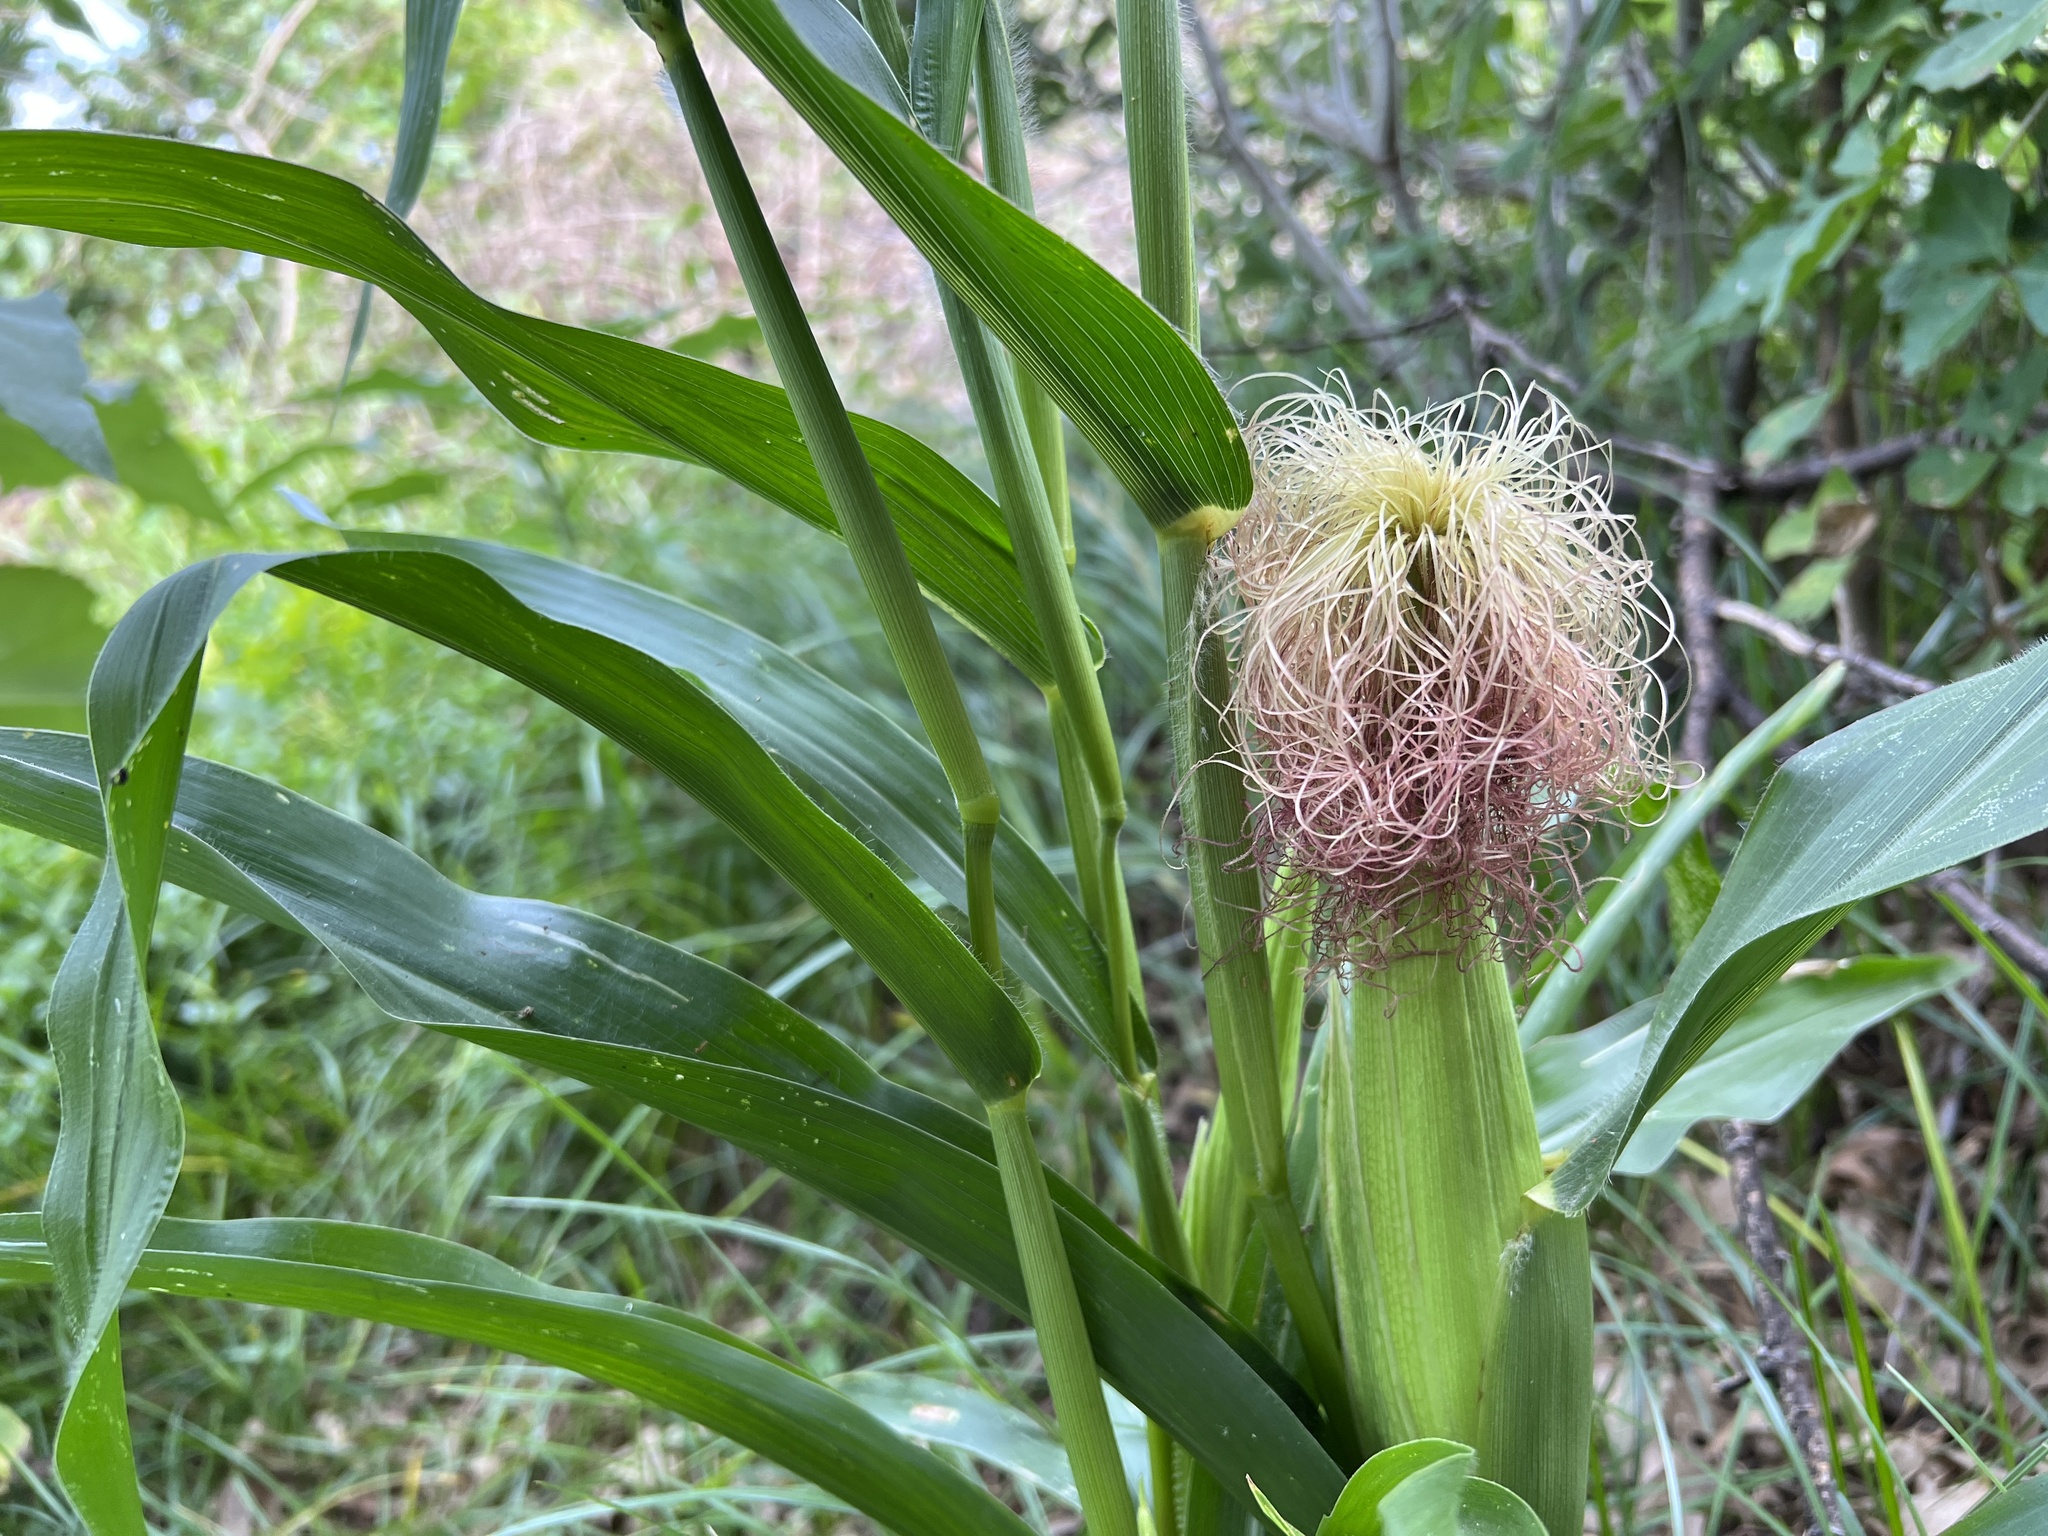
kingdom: Plantae
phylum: Tracheophyta
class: Liliopsida
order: Poales
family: Poaceae
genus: Zea
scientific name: Zea mays
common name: Maize
